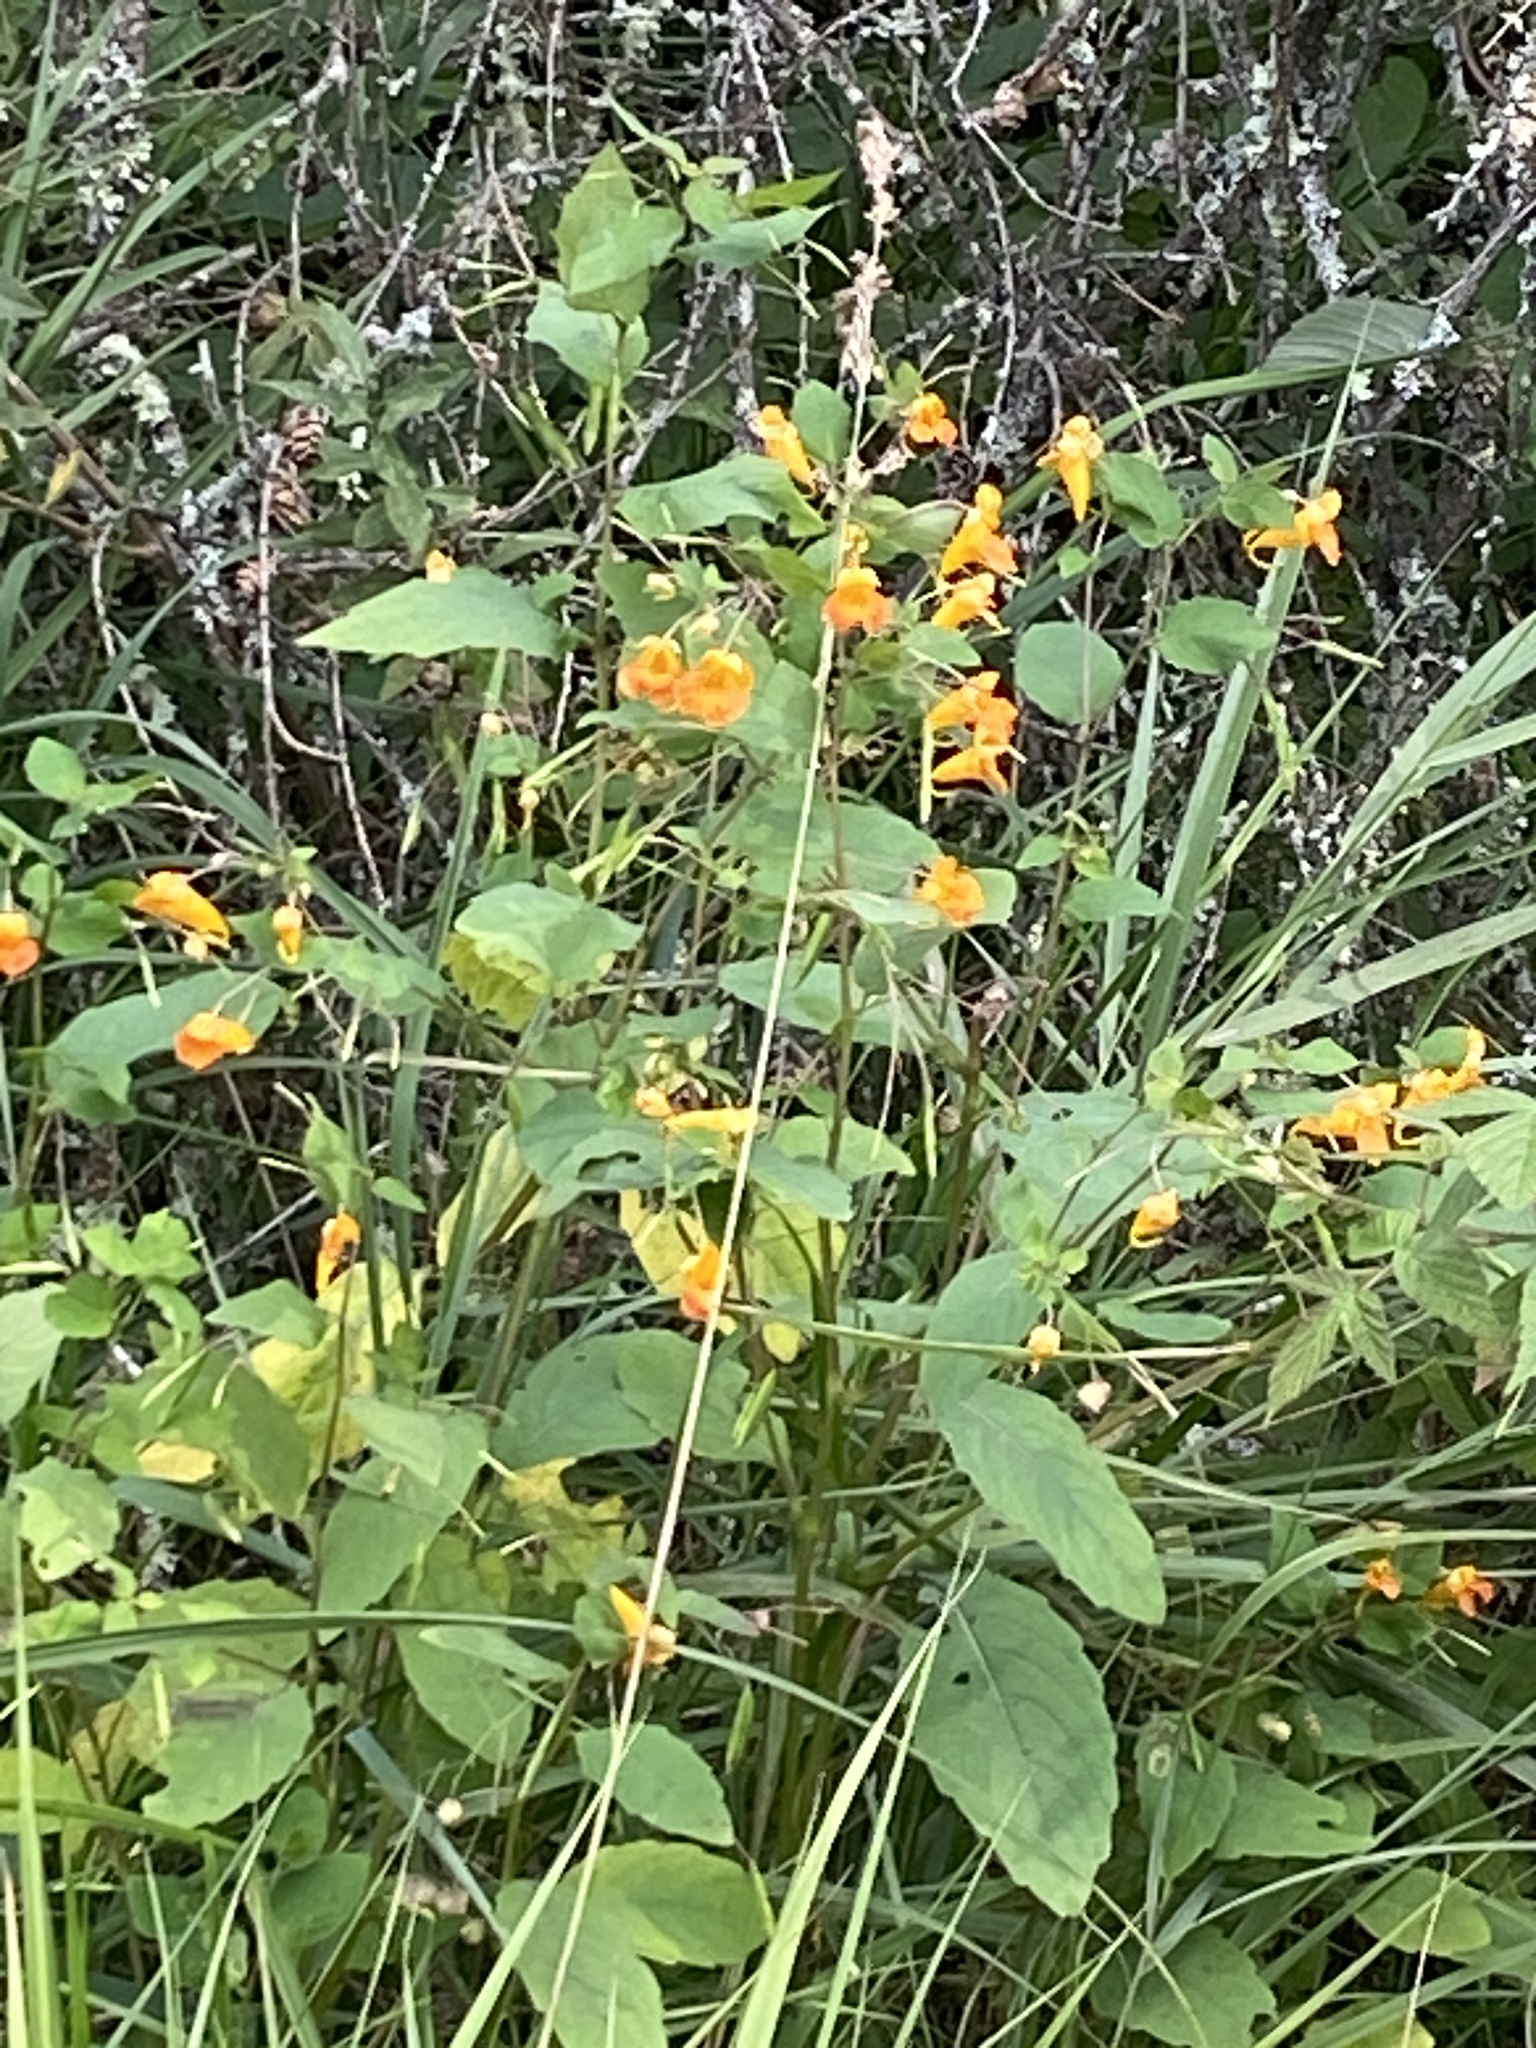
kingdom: Plantae
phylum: Tracheophyta
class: Magnoliopsida
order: Ericales
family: Balsaminaceae
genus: Impatiens
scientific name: Impatiens capensis
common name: Orange balsam
